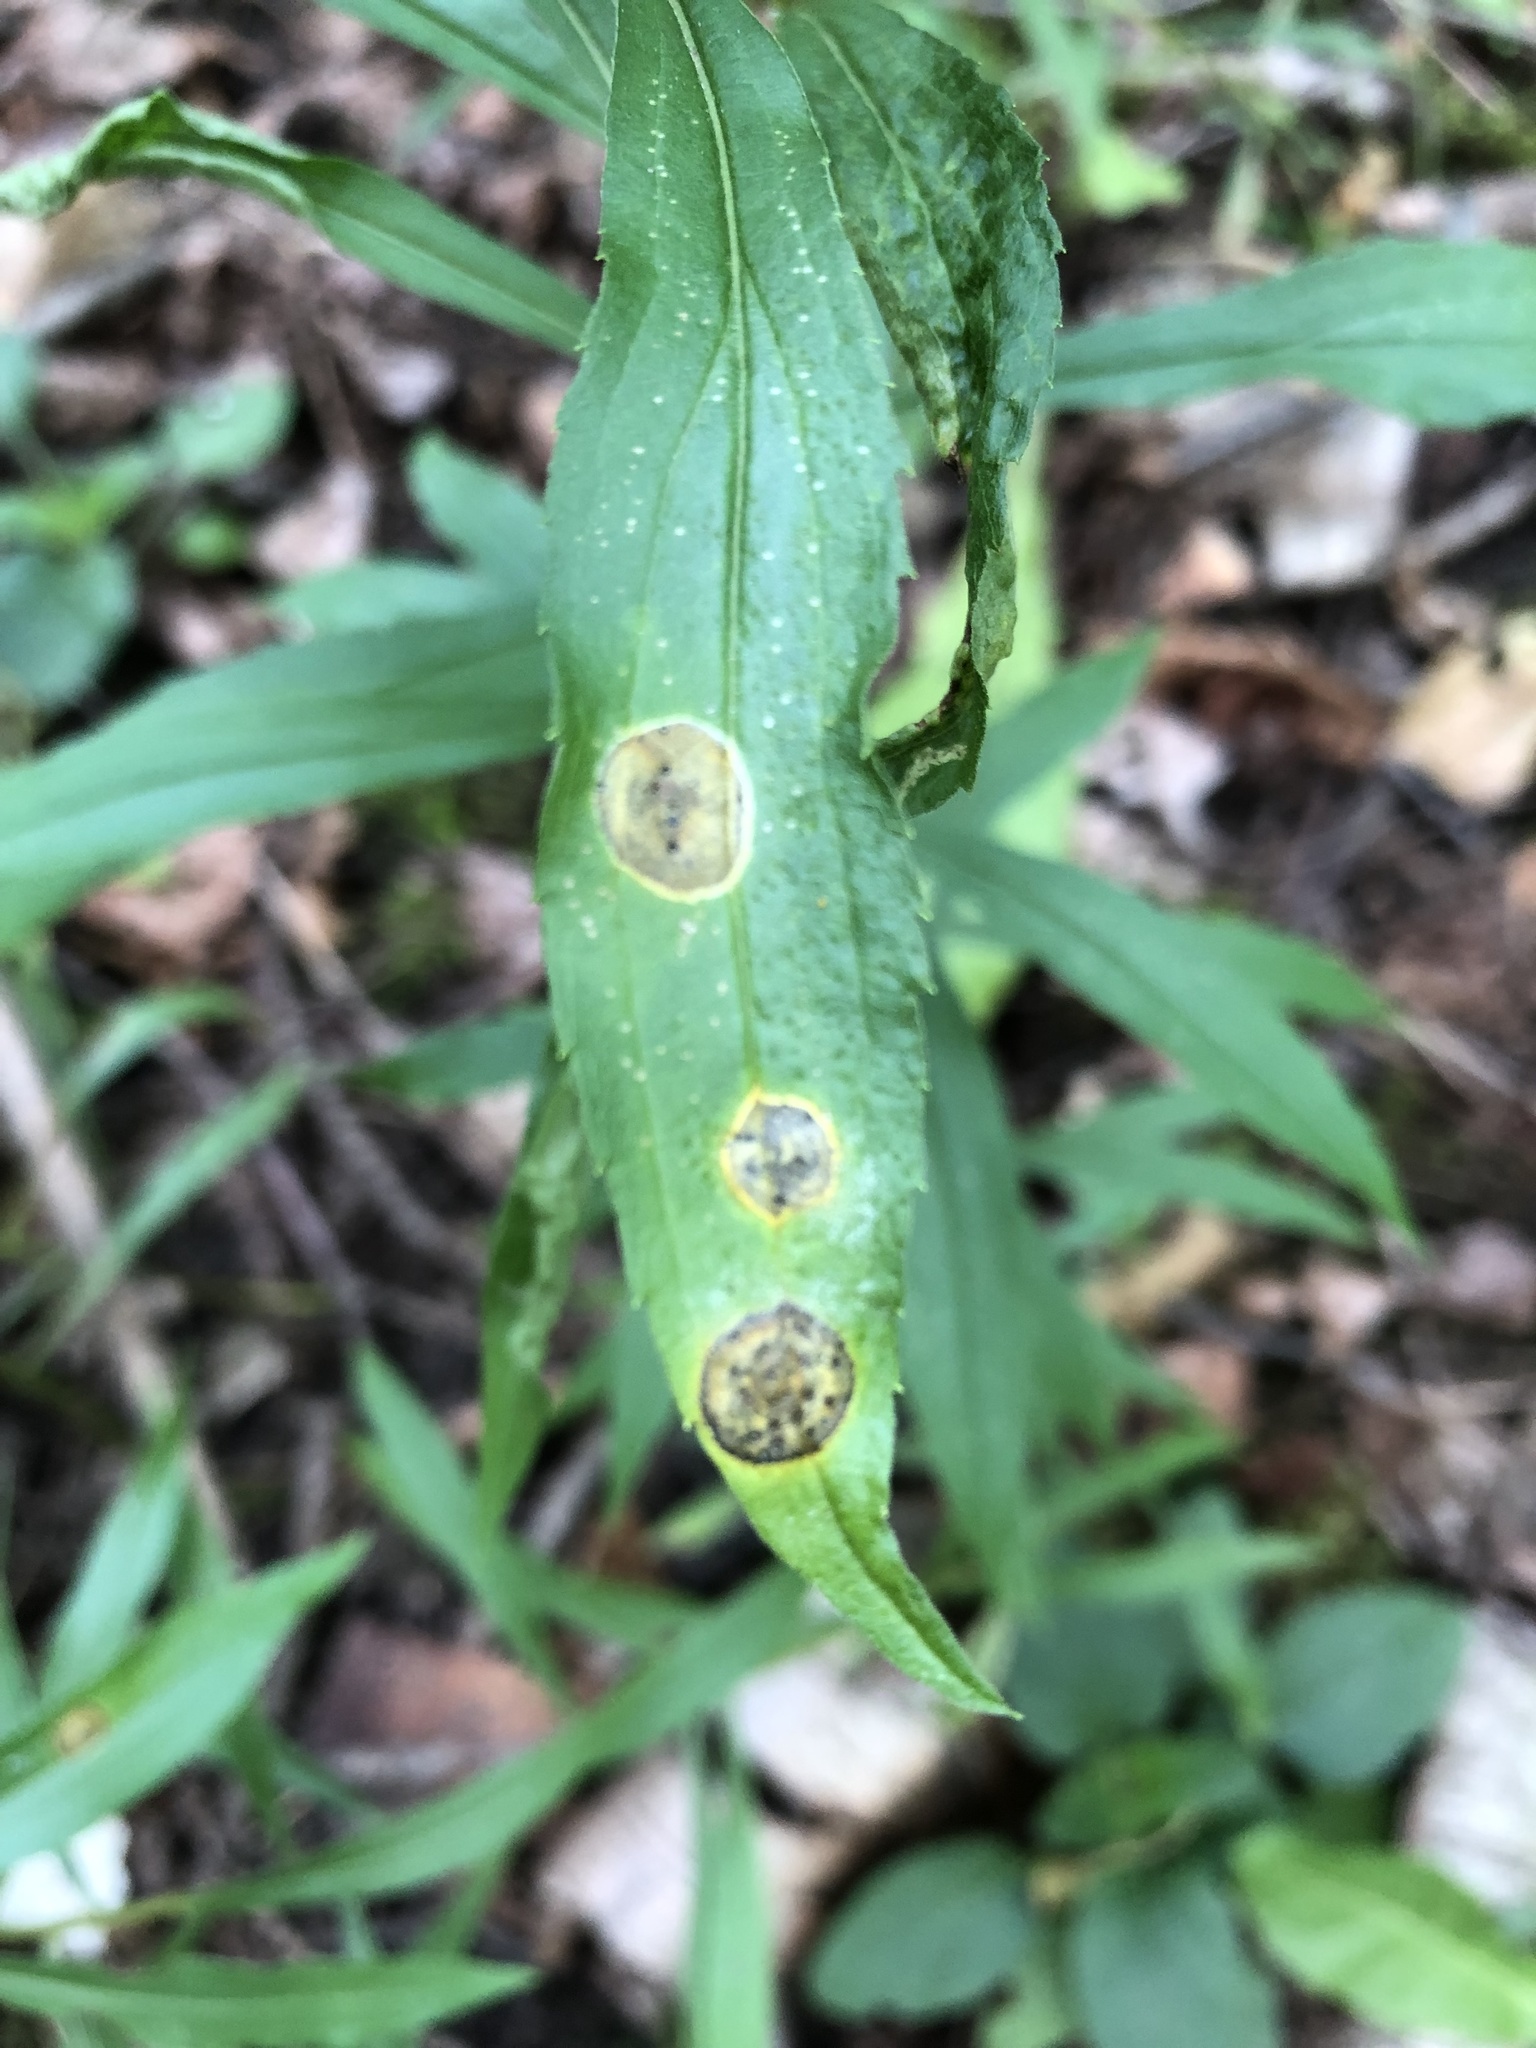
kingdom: Animalia
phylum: Arthropoda
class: Insecta
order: Diptera
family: Cecidomyiidae
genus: Asteromyia
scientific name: Asteromyia carbonifera
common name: Carbonifera goldenrod gall midge
